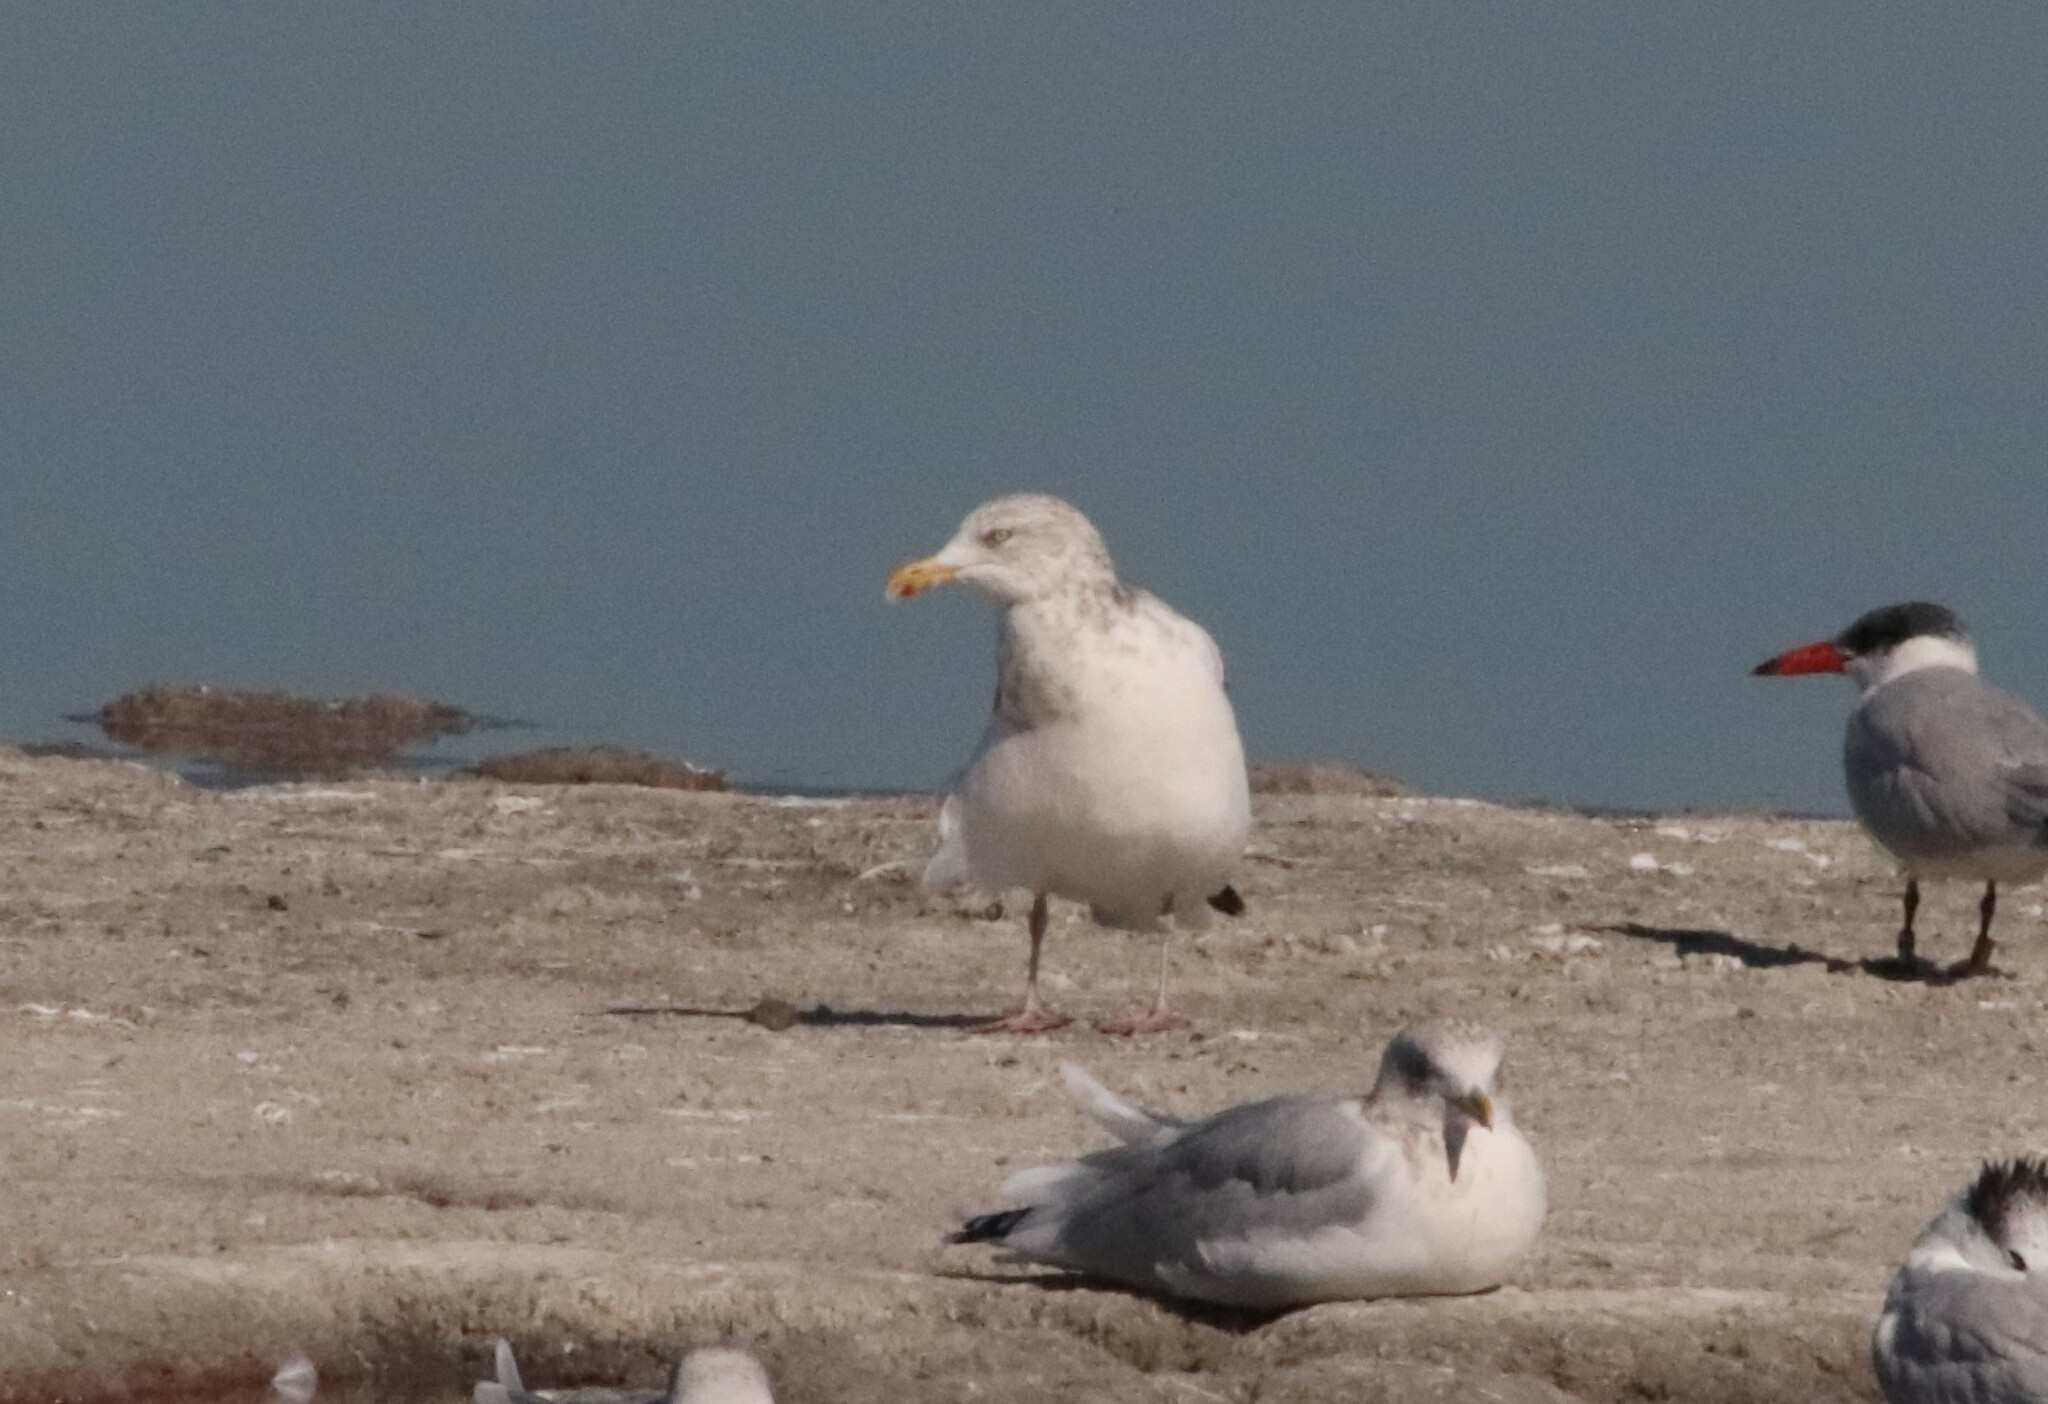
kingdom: Animalia
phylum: Chordata
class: Aves
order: Charadriiformes
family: Laridae
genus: Larus
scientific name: Larus argentatus
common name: Herring gull
